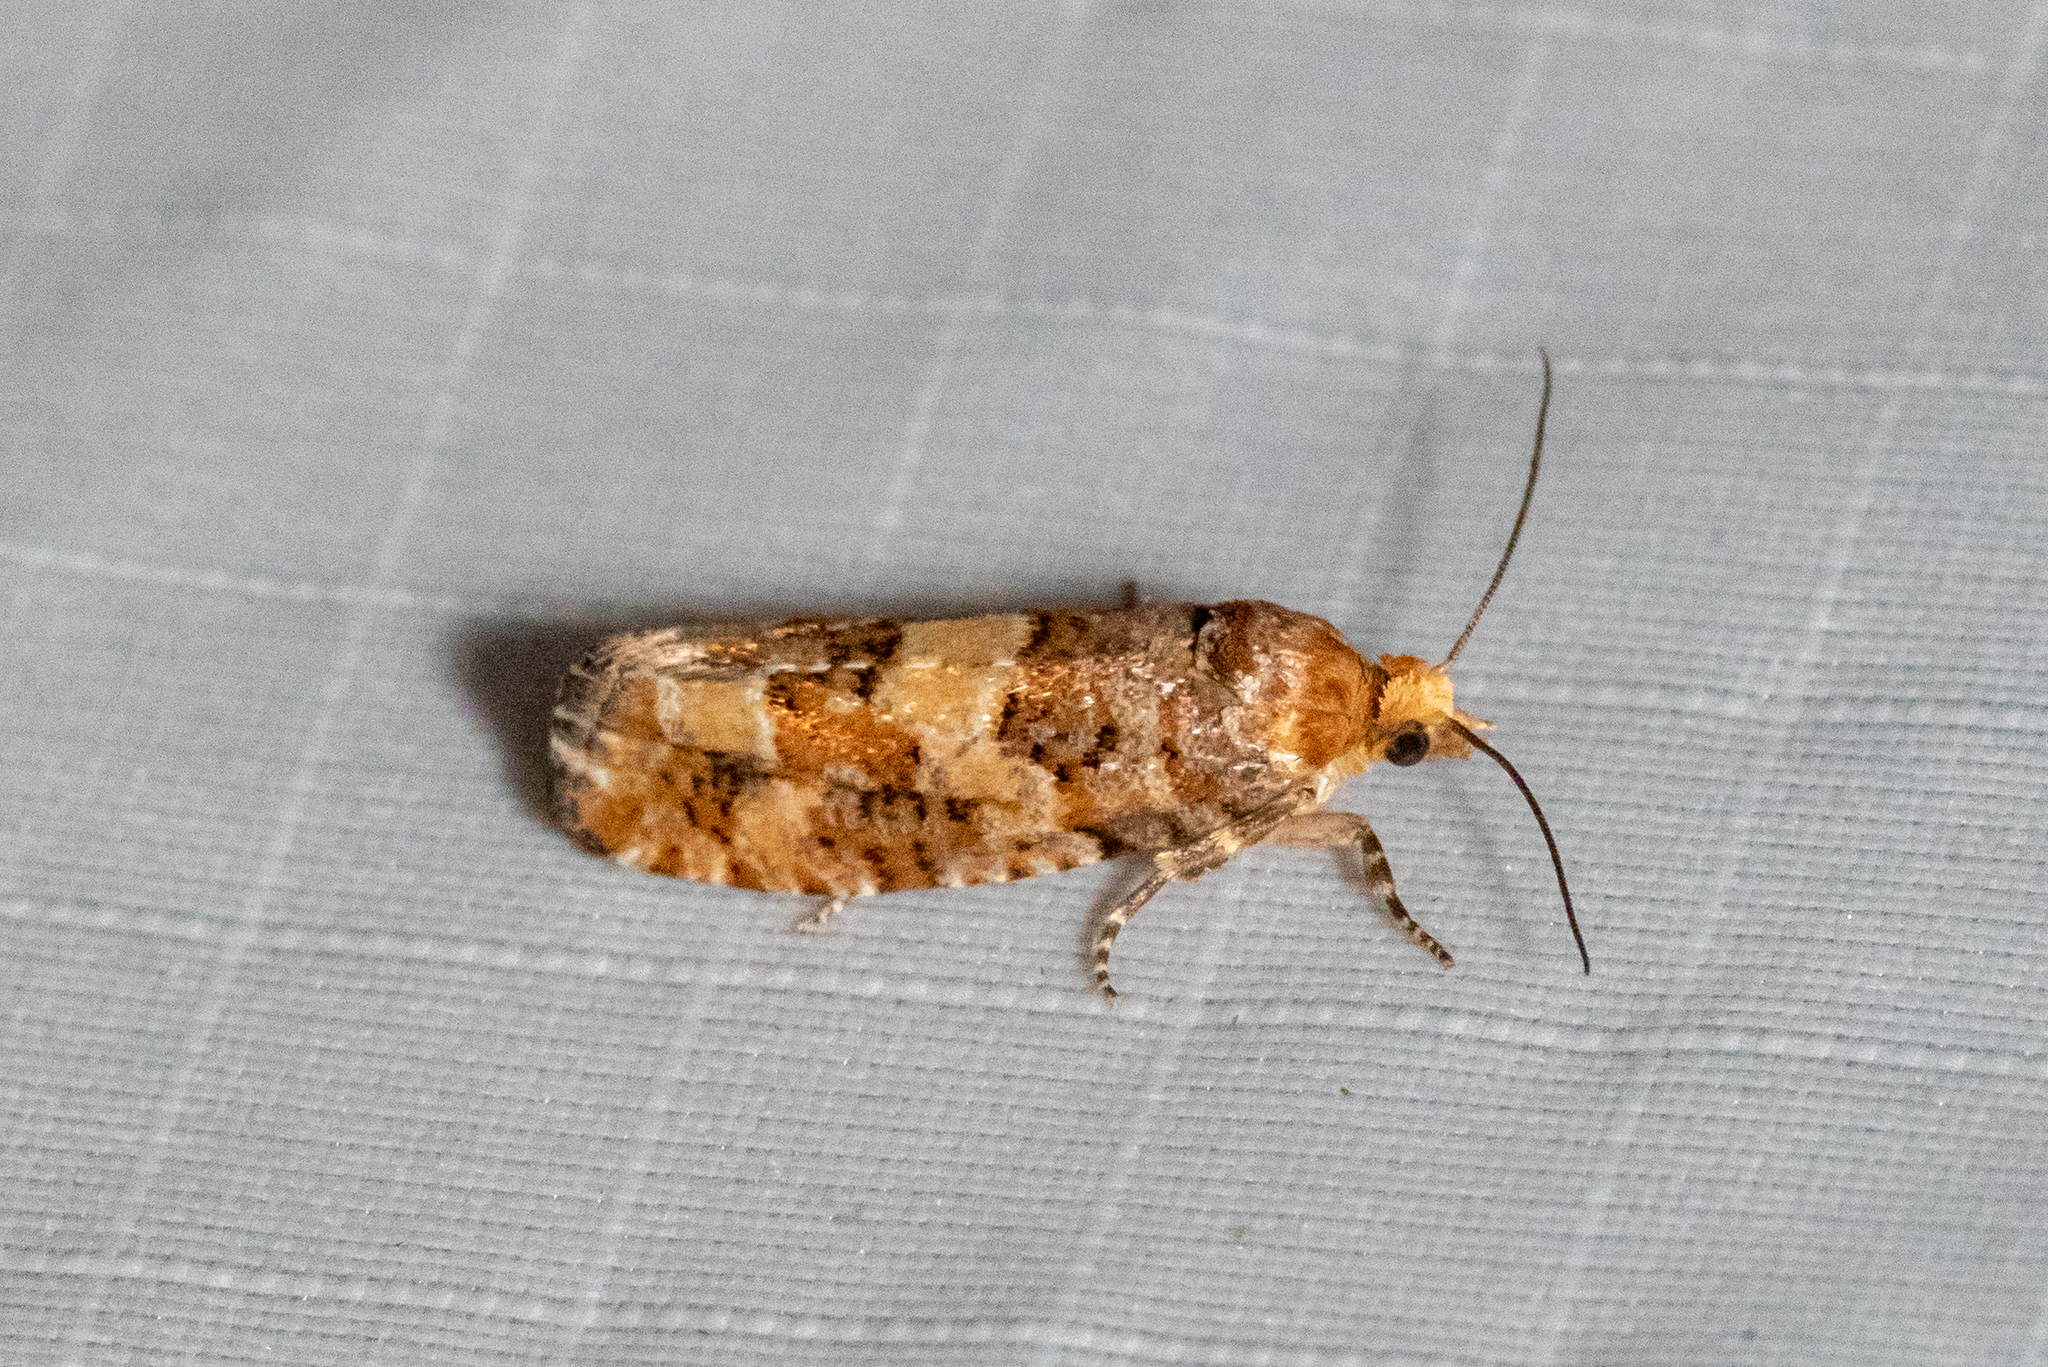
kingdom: Animalia
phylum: Arthropoda
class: Insecta
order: Lepidoptera
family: Tortricidae
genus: Eucopina
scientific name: Eucopina tocullionana
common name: White pinecone borer moth
